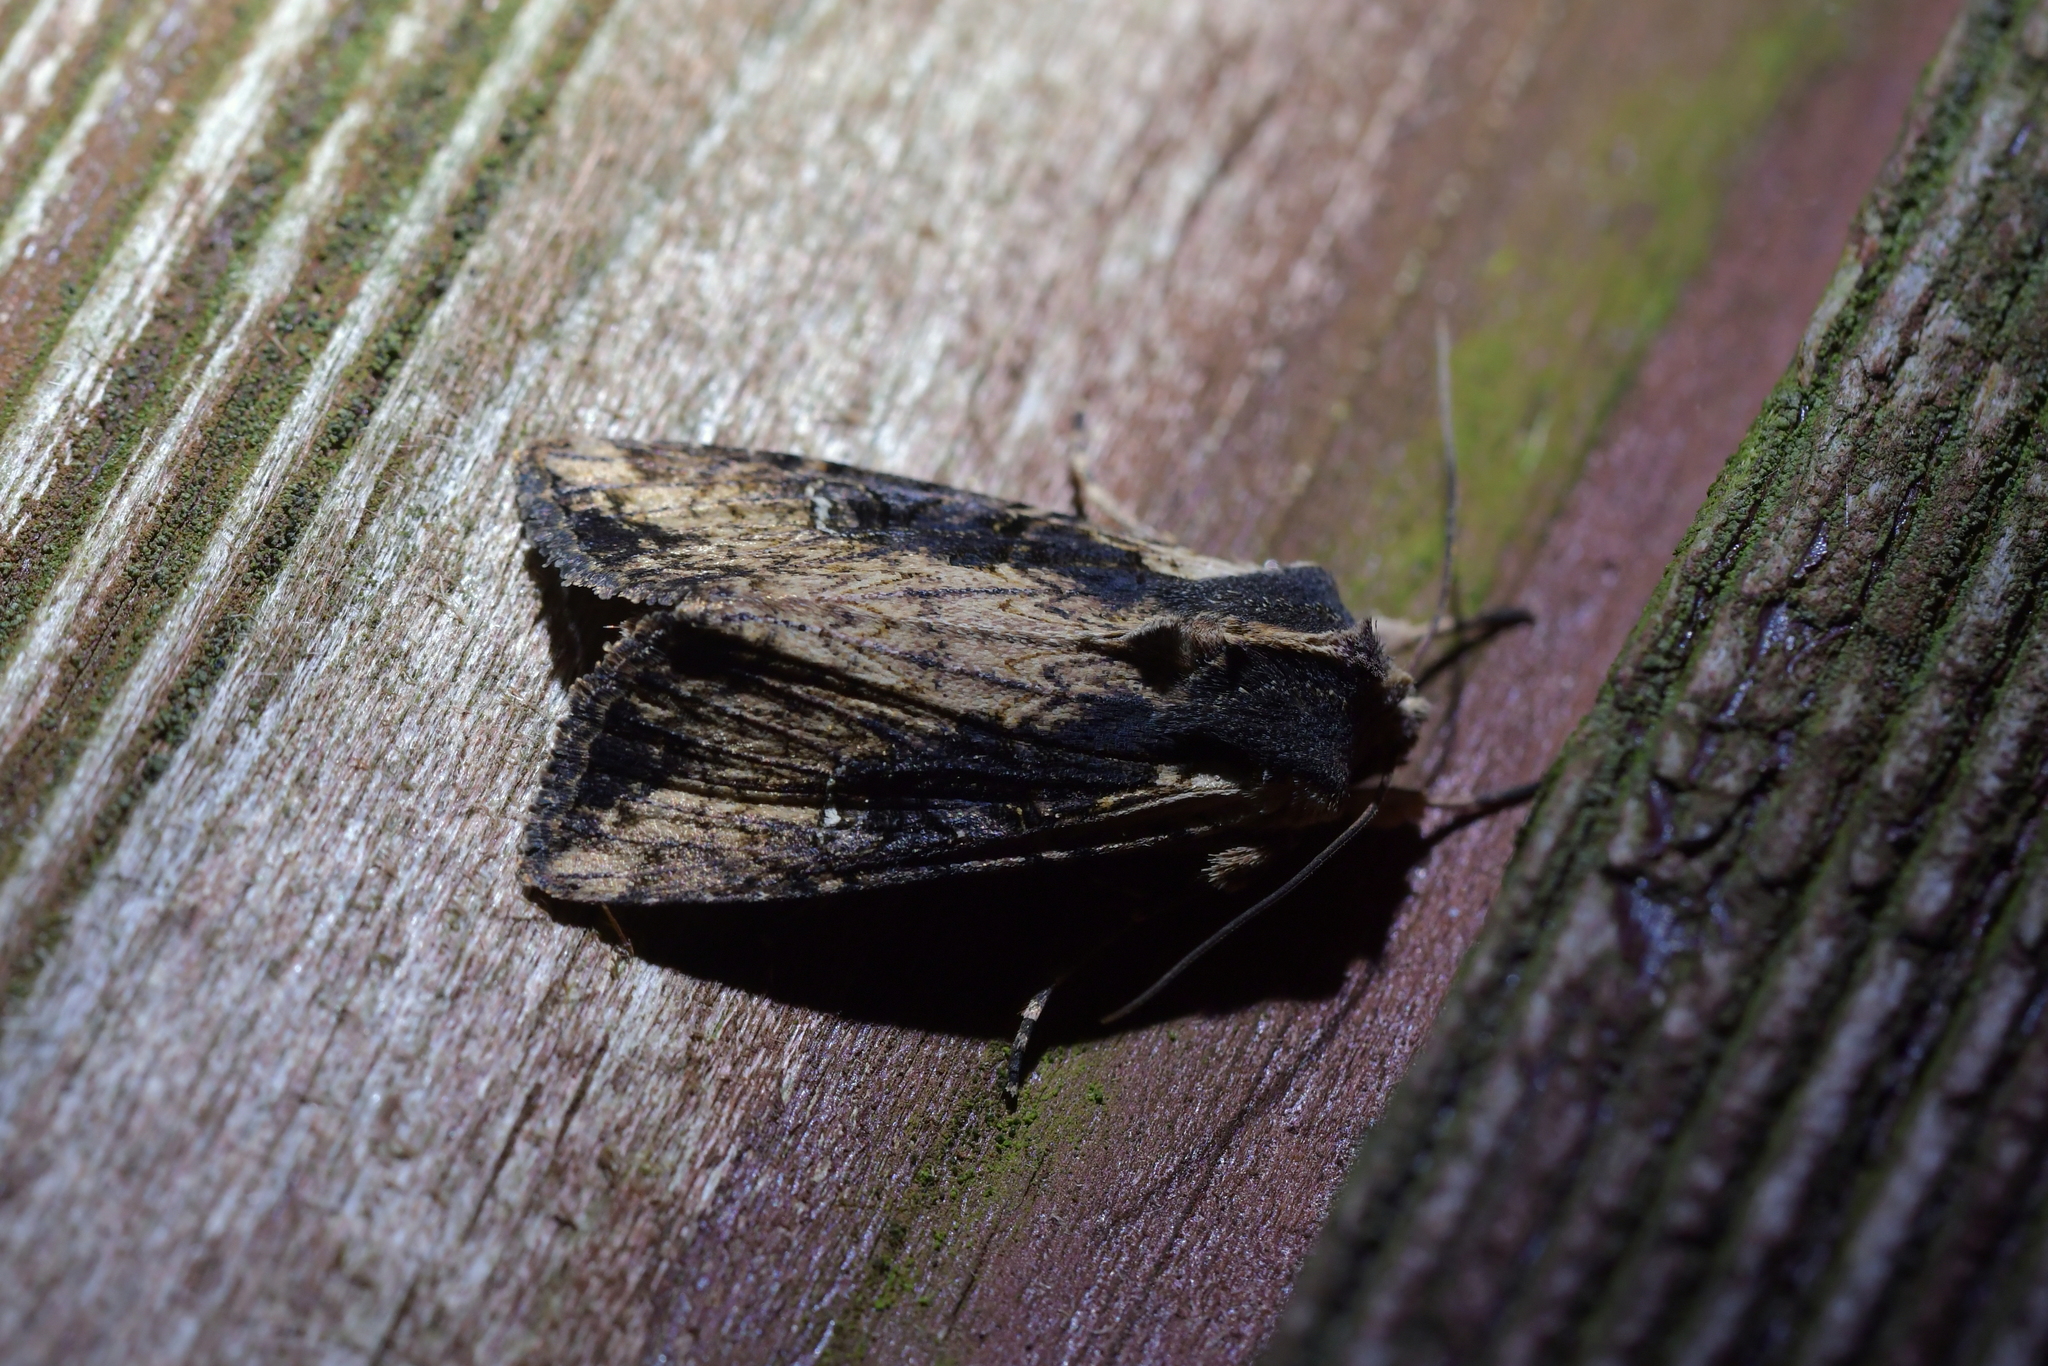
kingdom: Animalia
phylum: Arthropoda
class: Insecta
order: Lepidoptera
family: Noctuidae
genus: Ichneutica
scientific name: Ichneutica omoplaca
